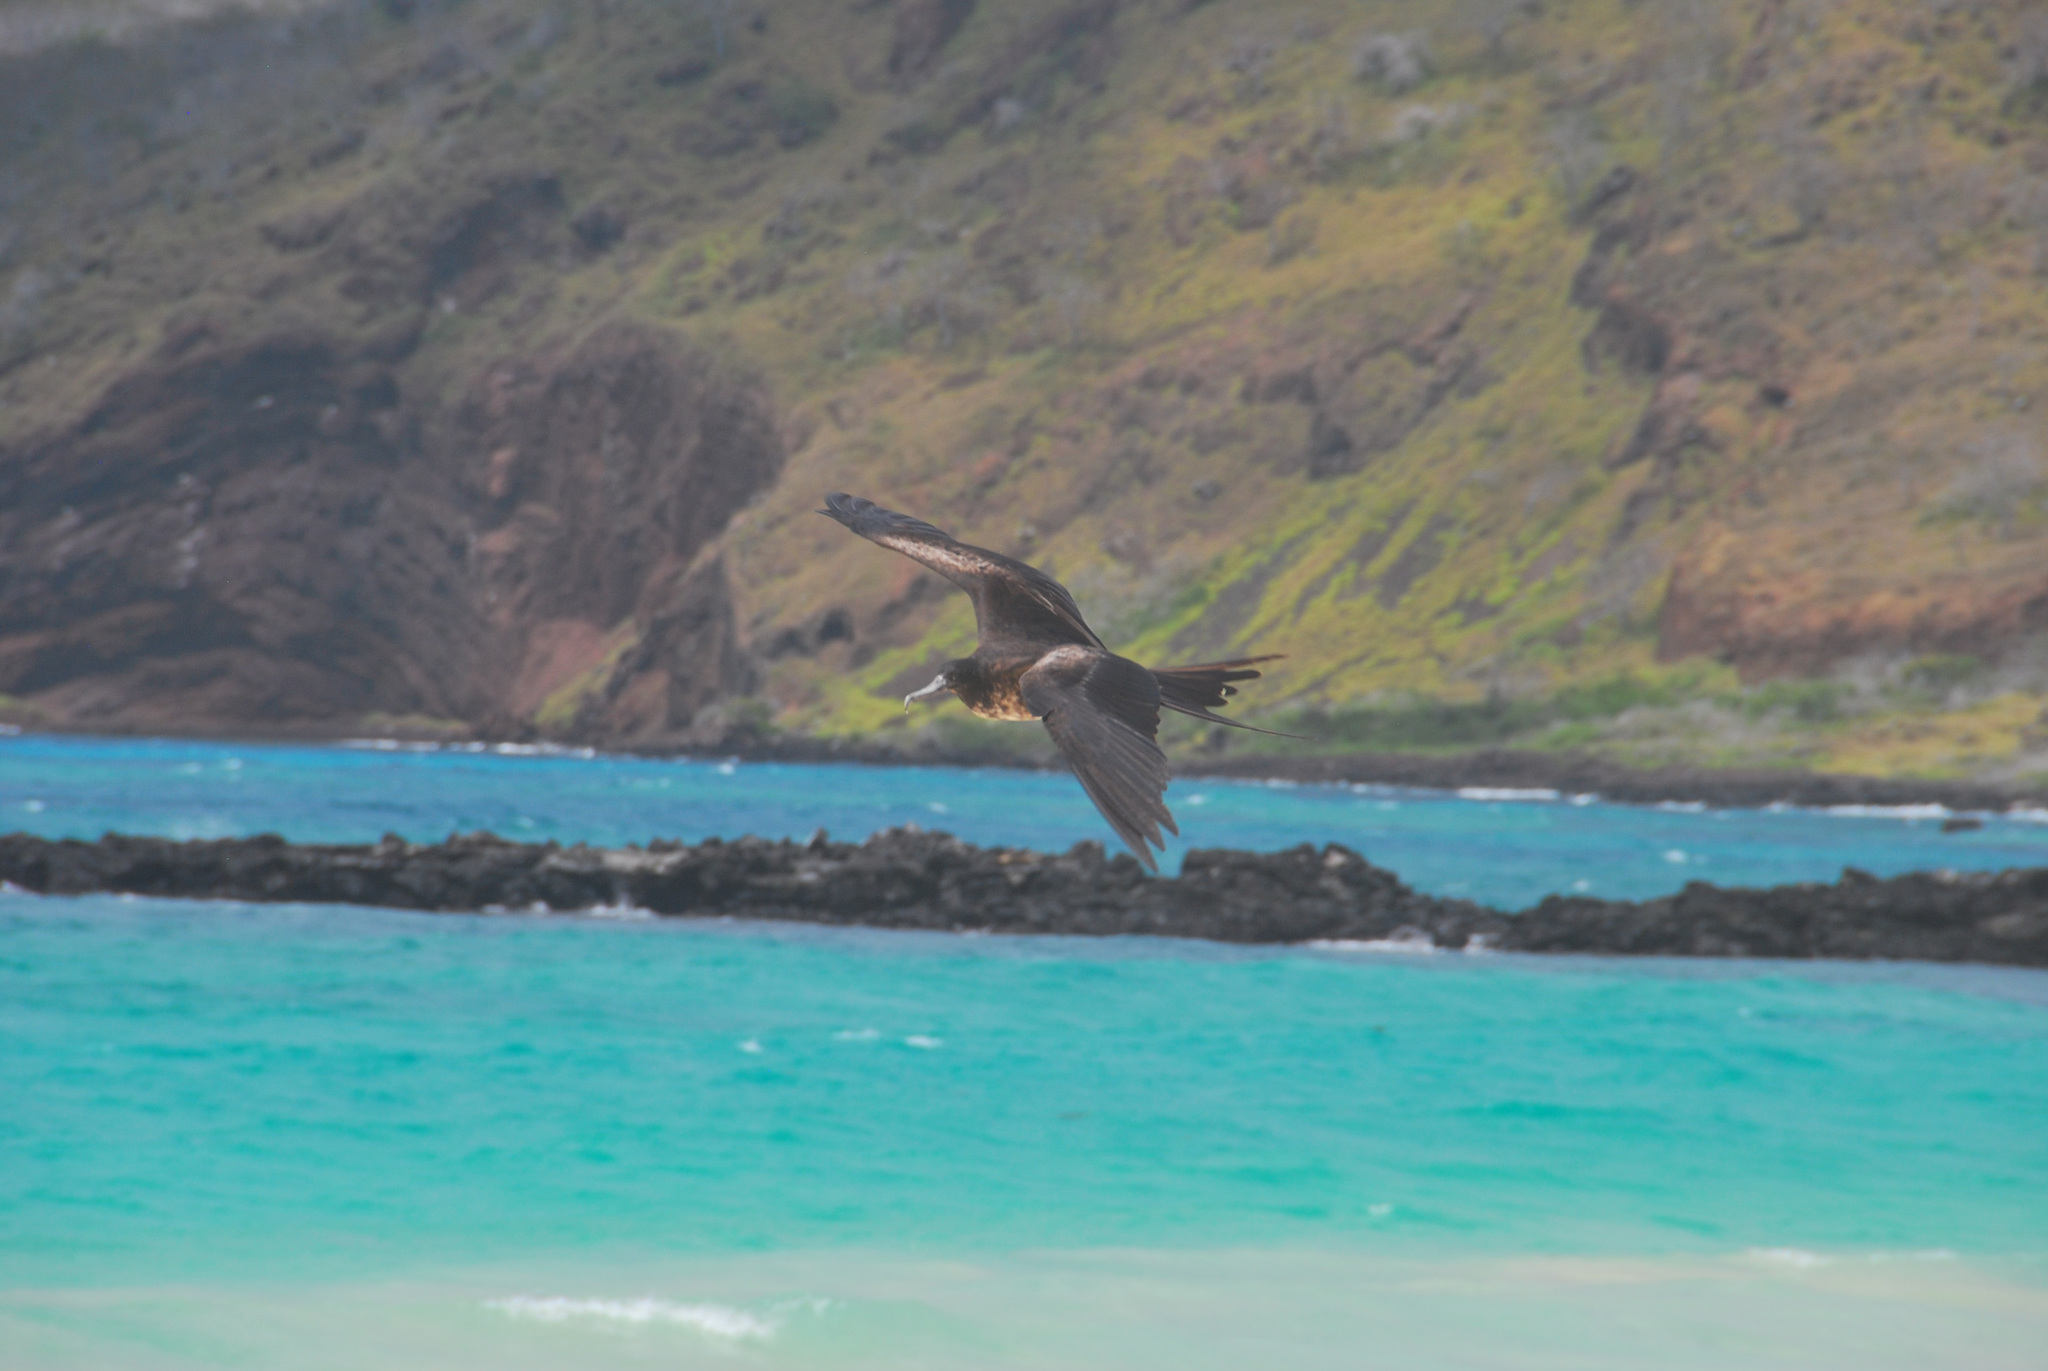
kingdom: Animalia
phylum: Chordata
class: Aves
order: Suliformes
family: Fregatidae
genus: Fregata
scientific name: Fregata magnificens
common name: Magnificent frigatebird
